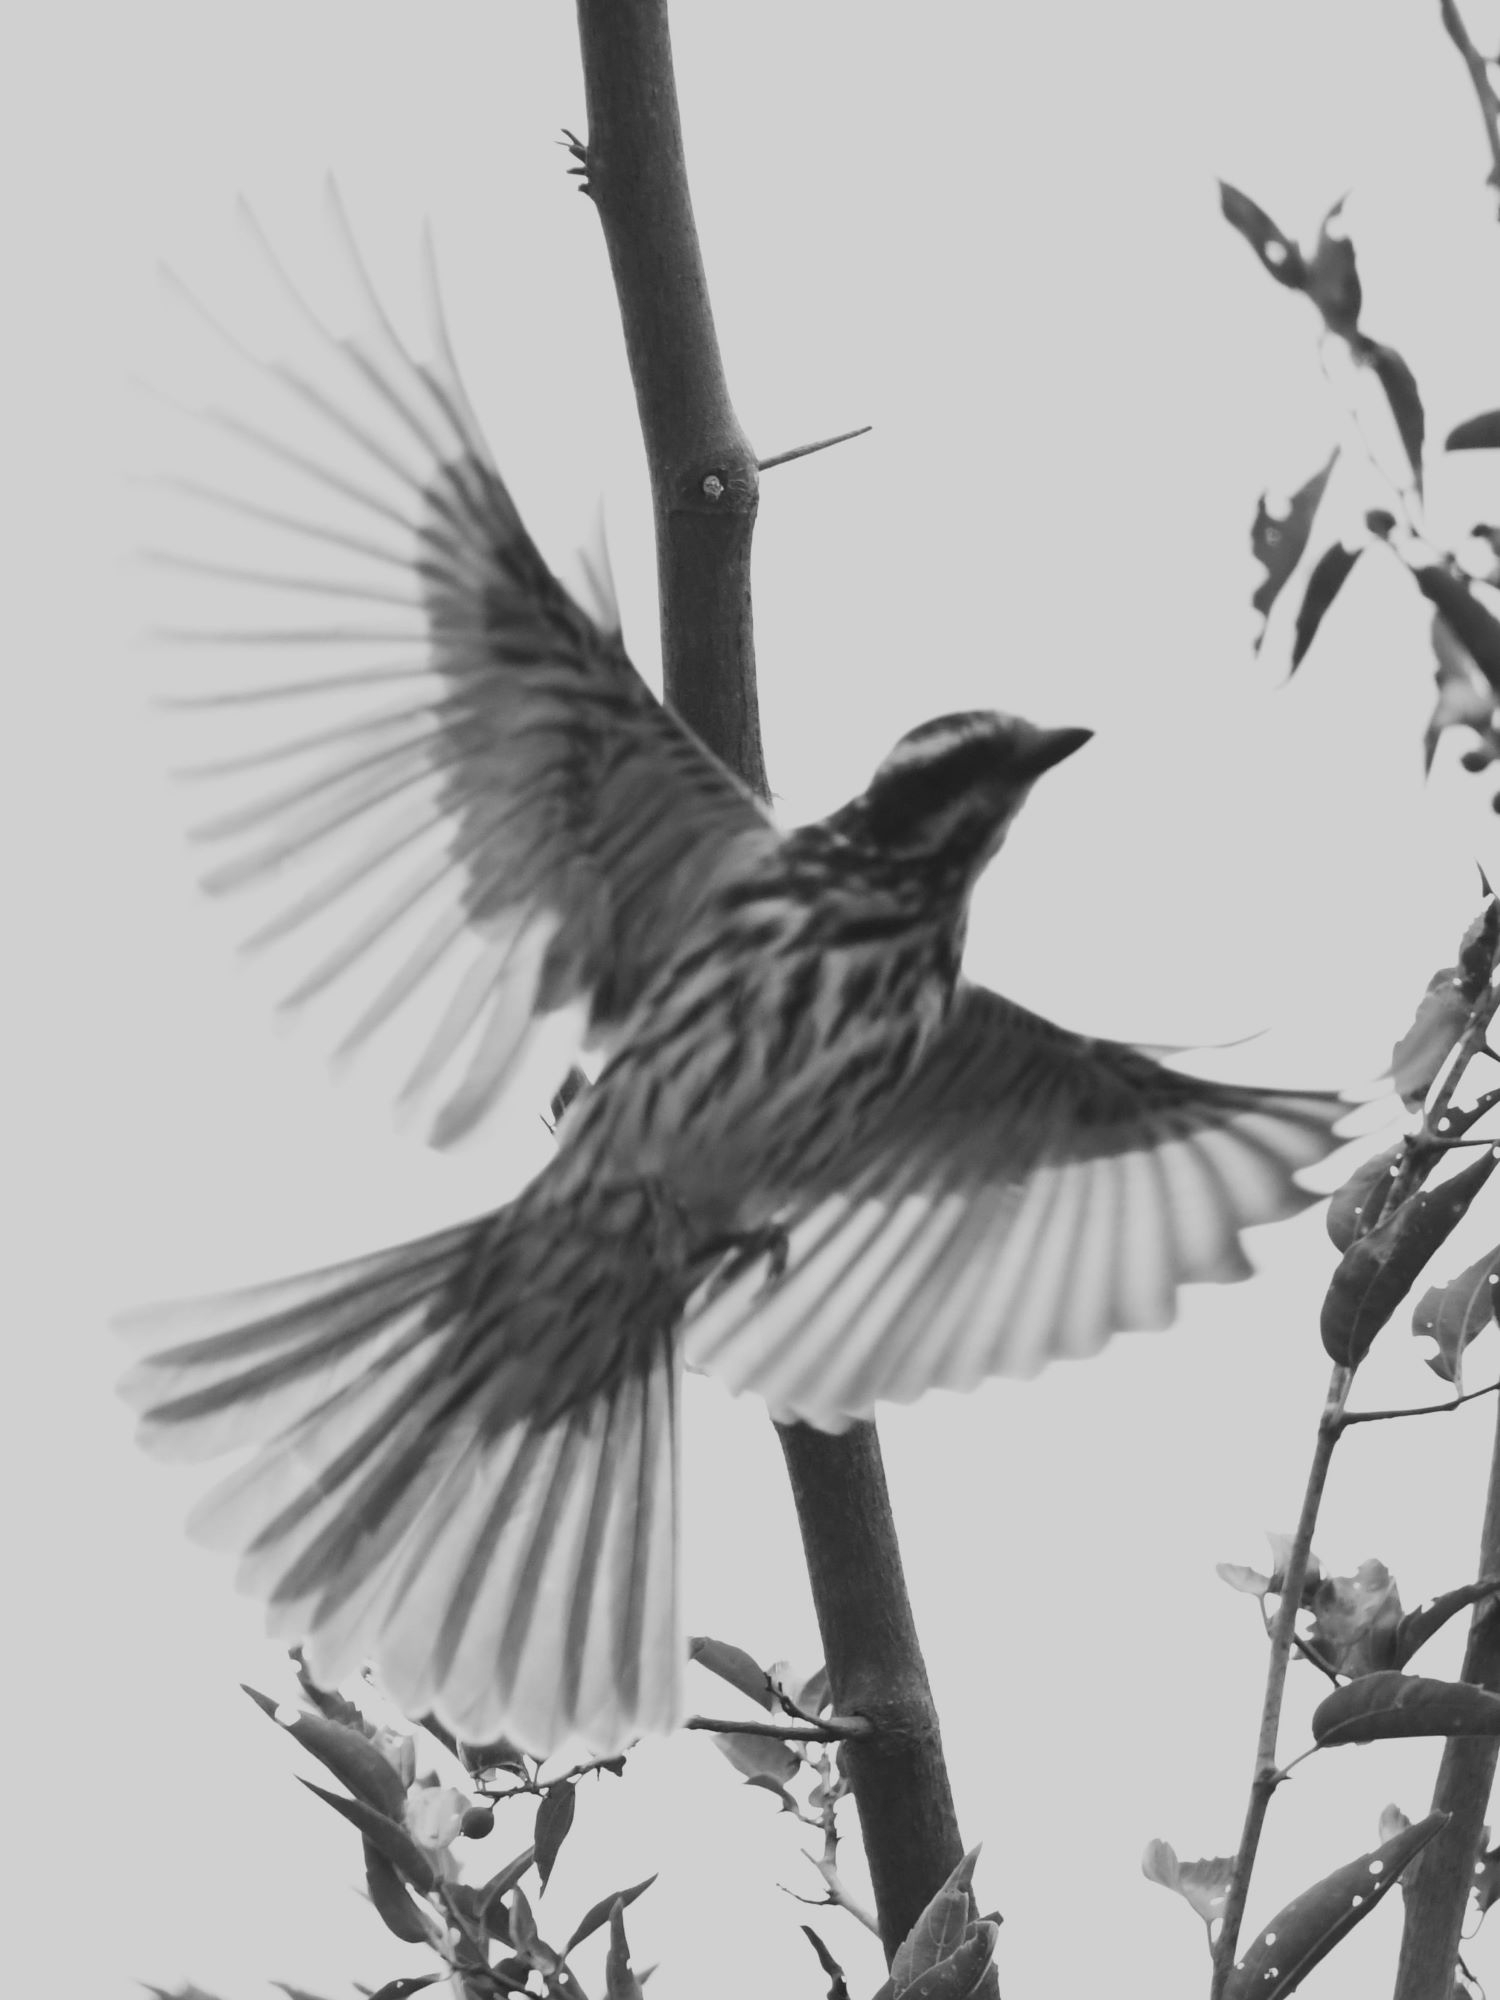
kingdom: Animalia
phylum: Chordata
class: Aves
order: Passeriformes
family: Tyrannidae
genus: Myiodynastes
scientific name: Myiodynastes maculatus
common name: Streaked flycatcher
